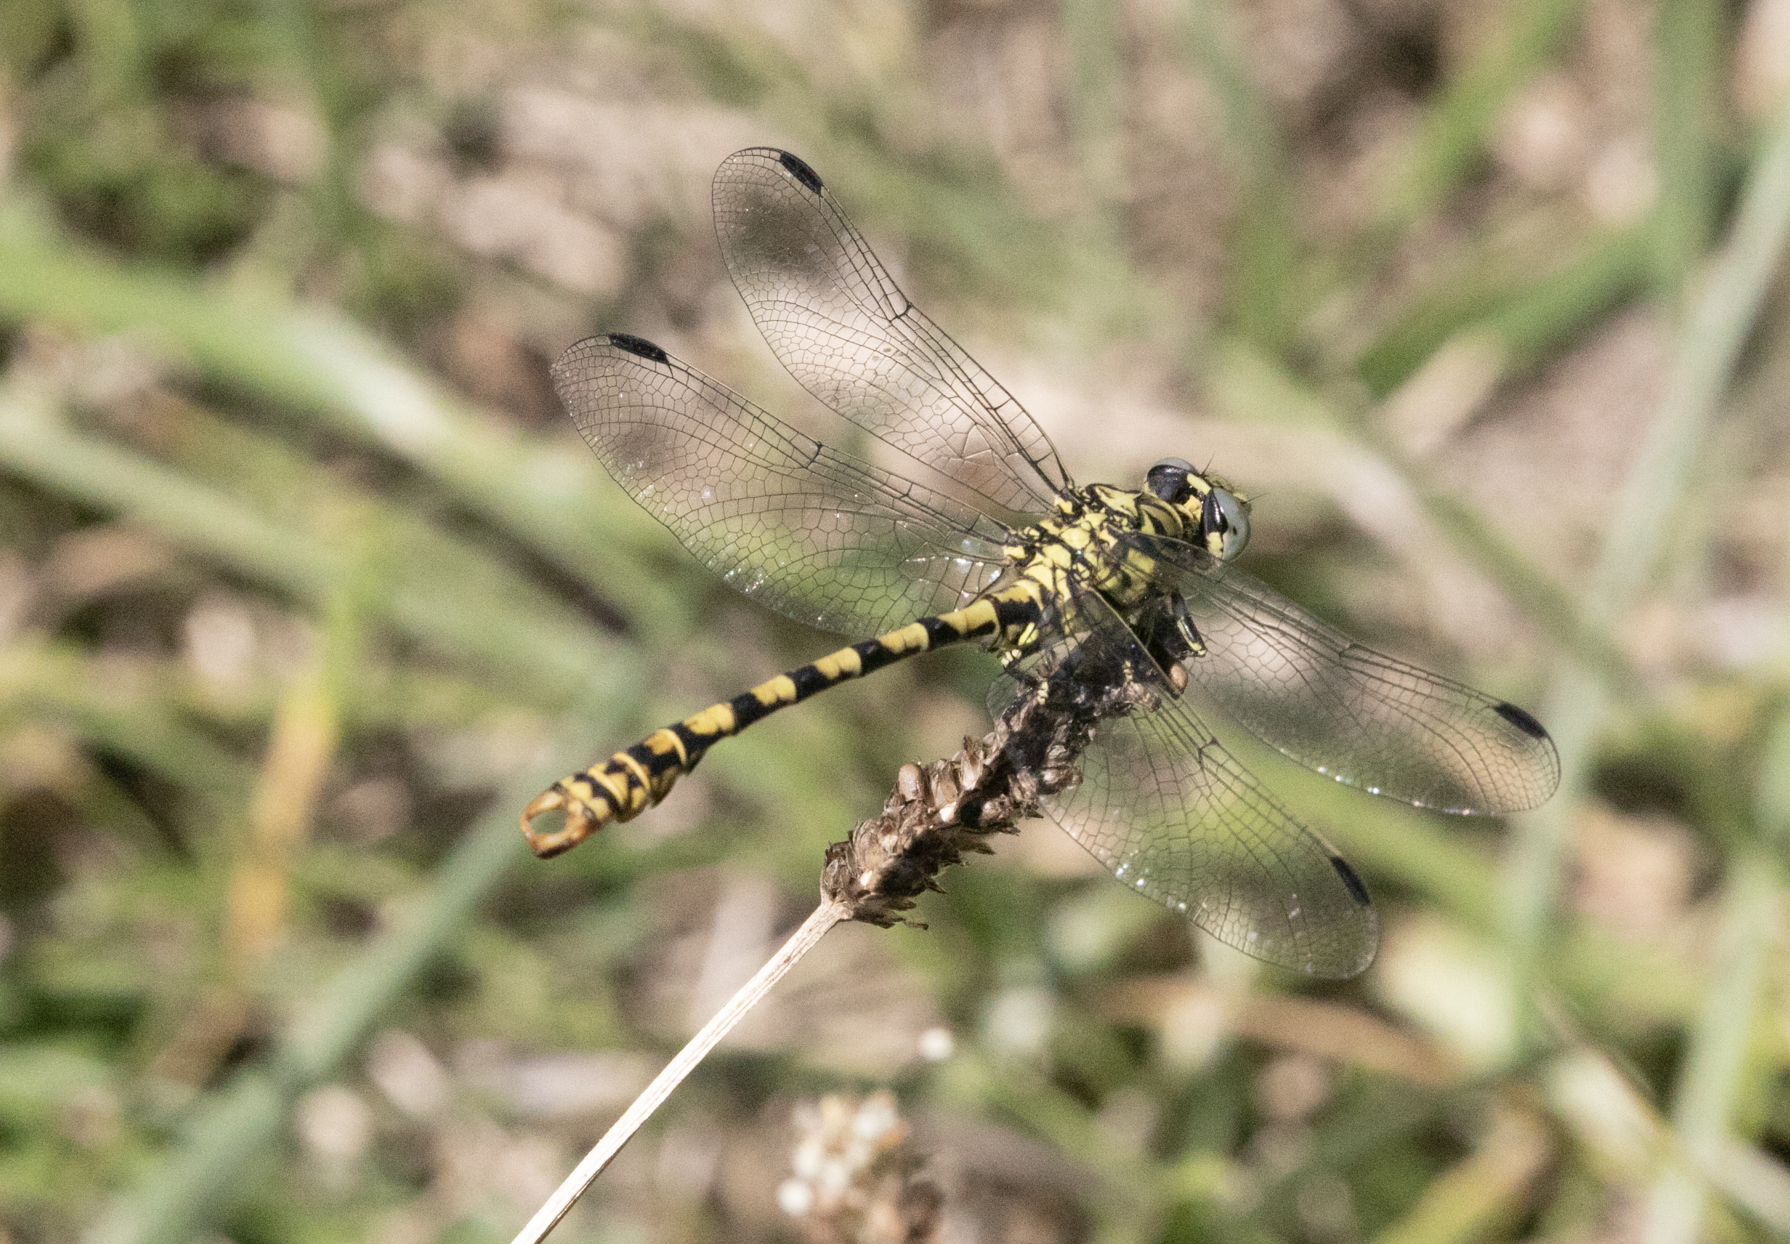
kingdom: Animalia
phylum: Arthropoda
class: Insecta
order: Odonata
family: Gomphidae
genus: Onychogomphus
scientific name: Onychogomphus forcipatus
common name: Small pincertail
